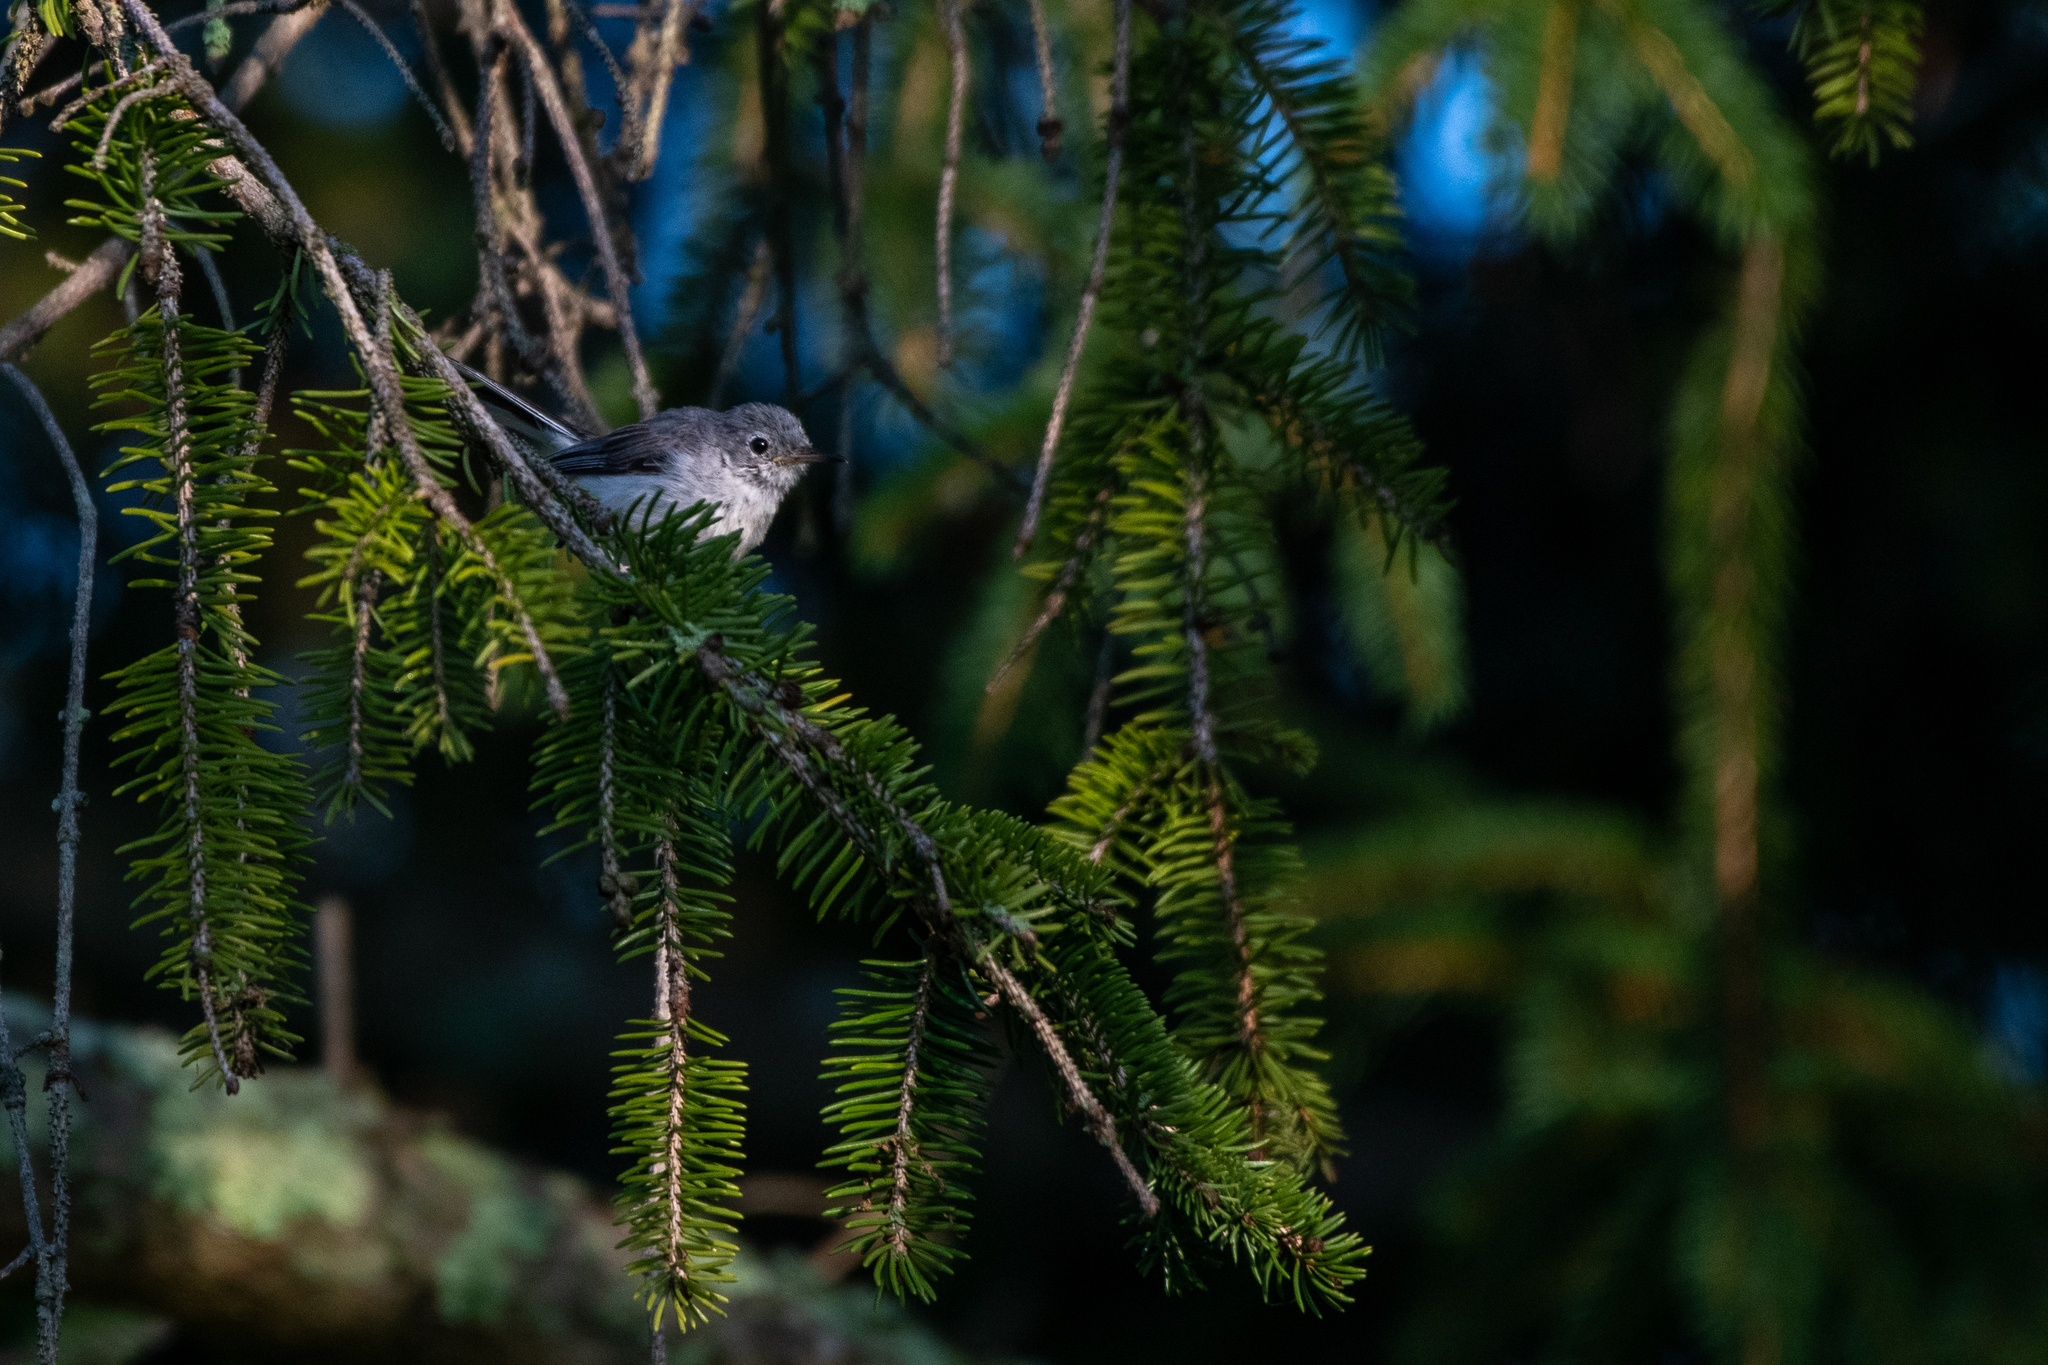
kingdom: Animalia
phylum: Chordata
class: Aves
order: Passeriformes
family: Polioptilidae
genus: Polioptila
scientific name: Polioptila caerulea
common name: Blue-gray gnatcatcher
